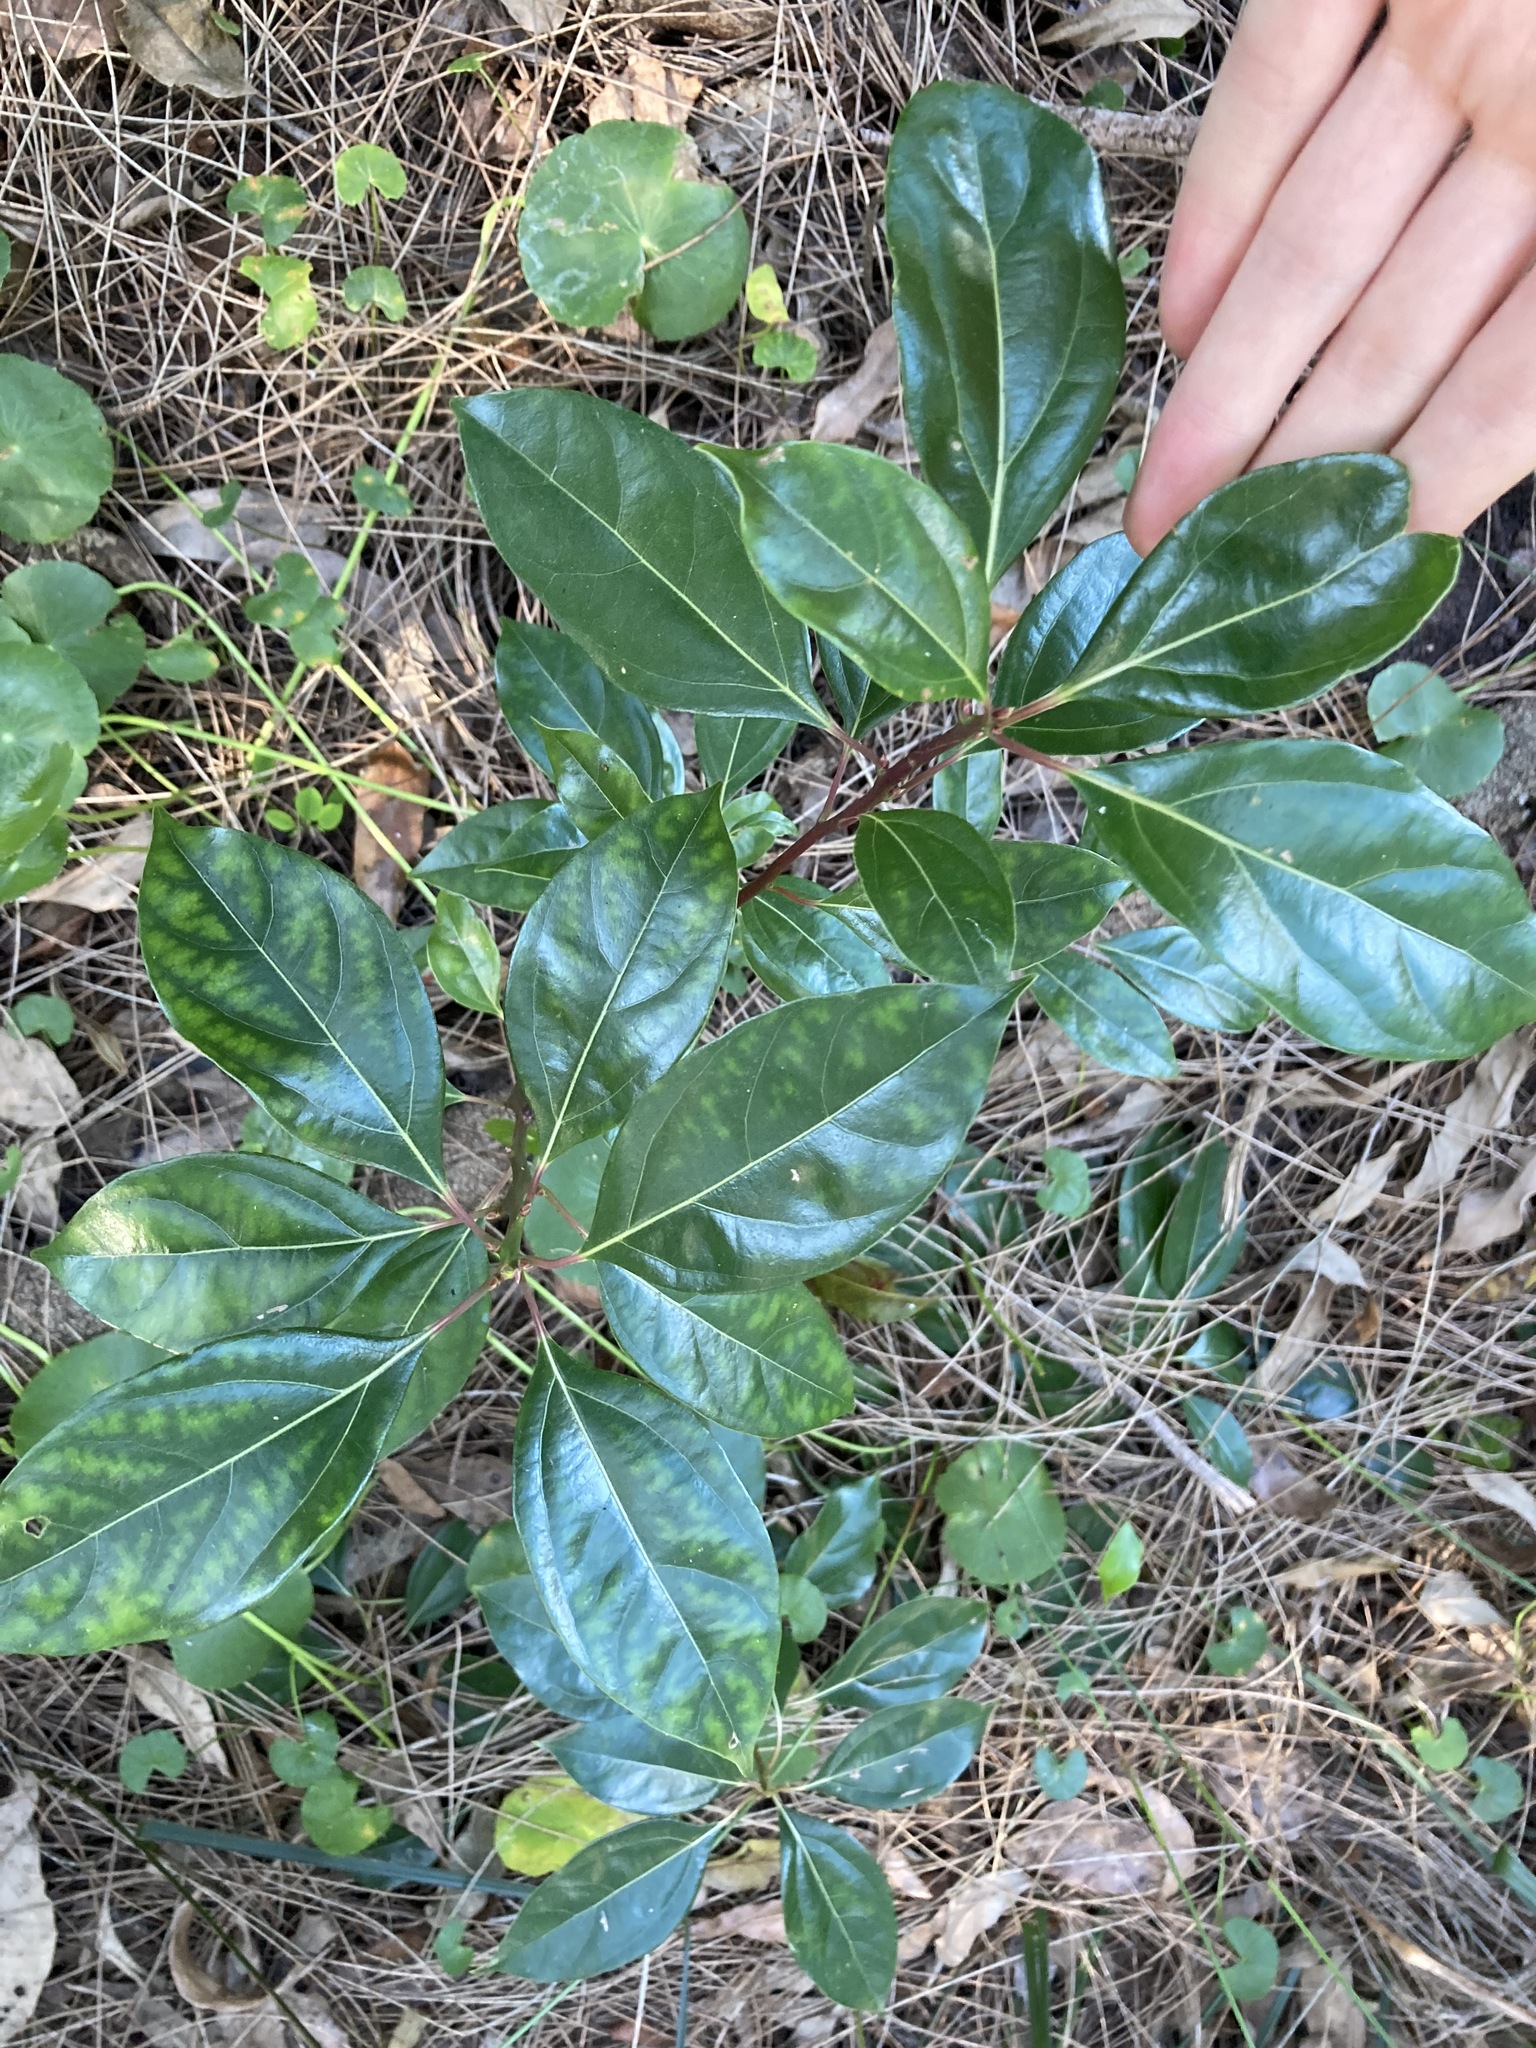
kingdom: Plantae
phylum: Tracheophyta
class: Magnoliopsida
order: Laurales
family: Lauraceae
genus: Cinnamomum
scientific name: Cinnamomum camphora
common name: Camphortree
